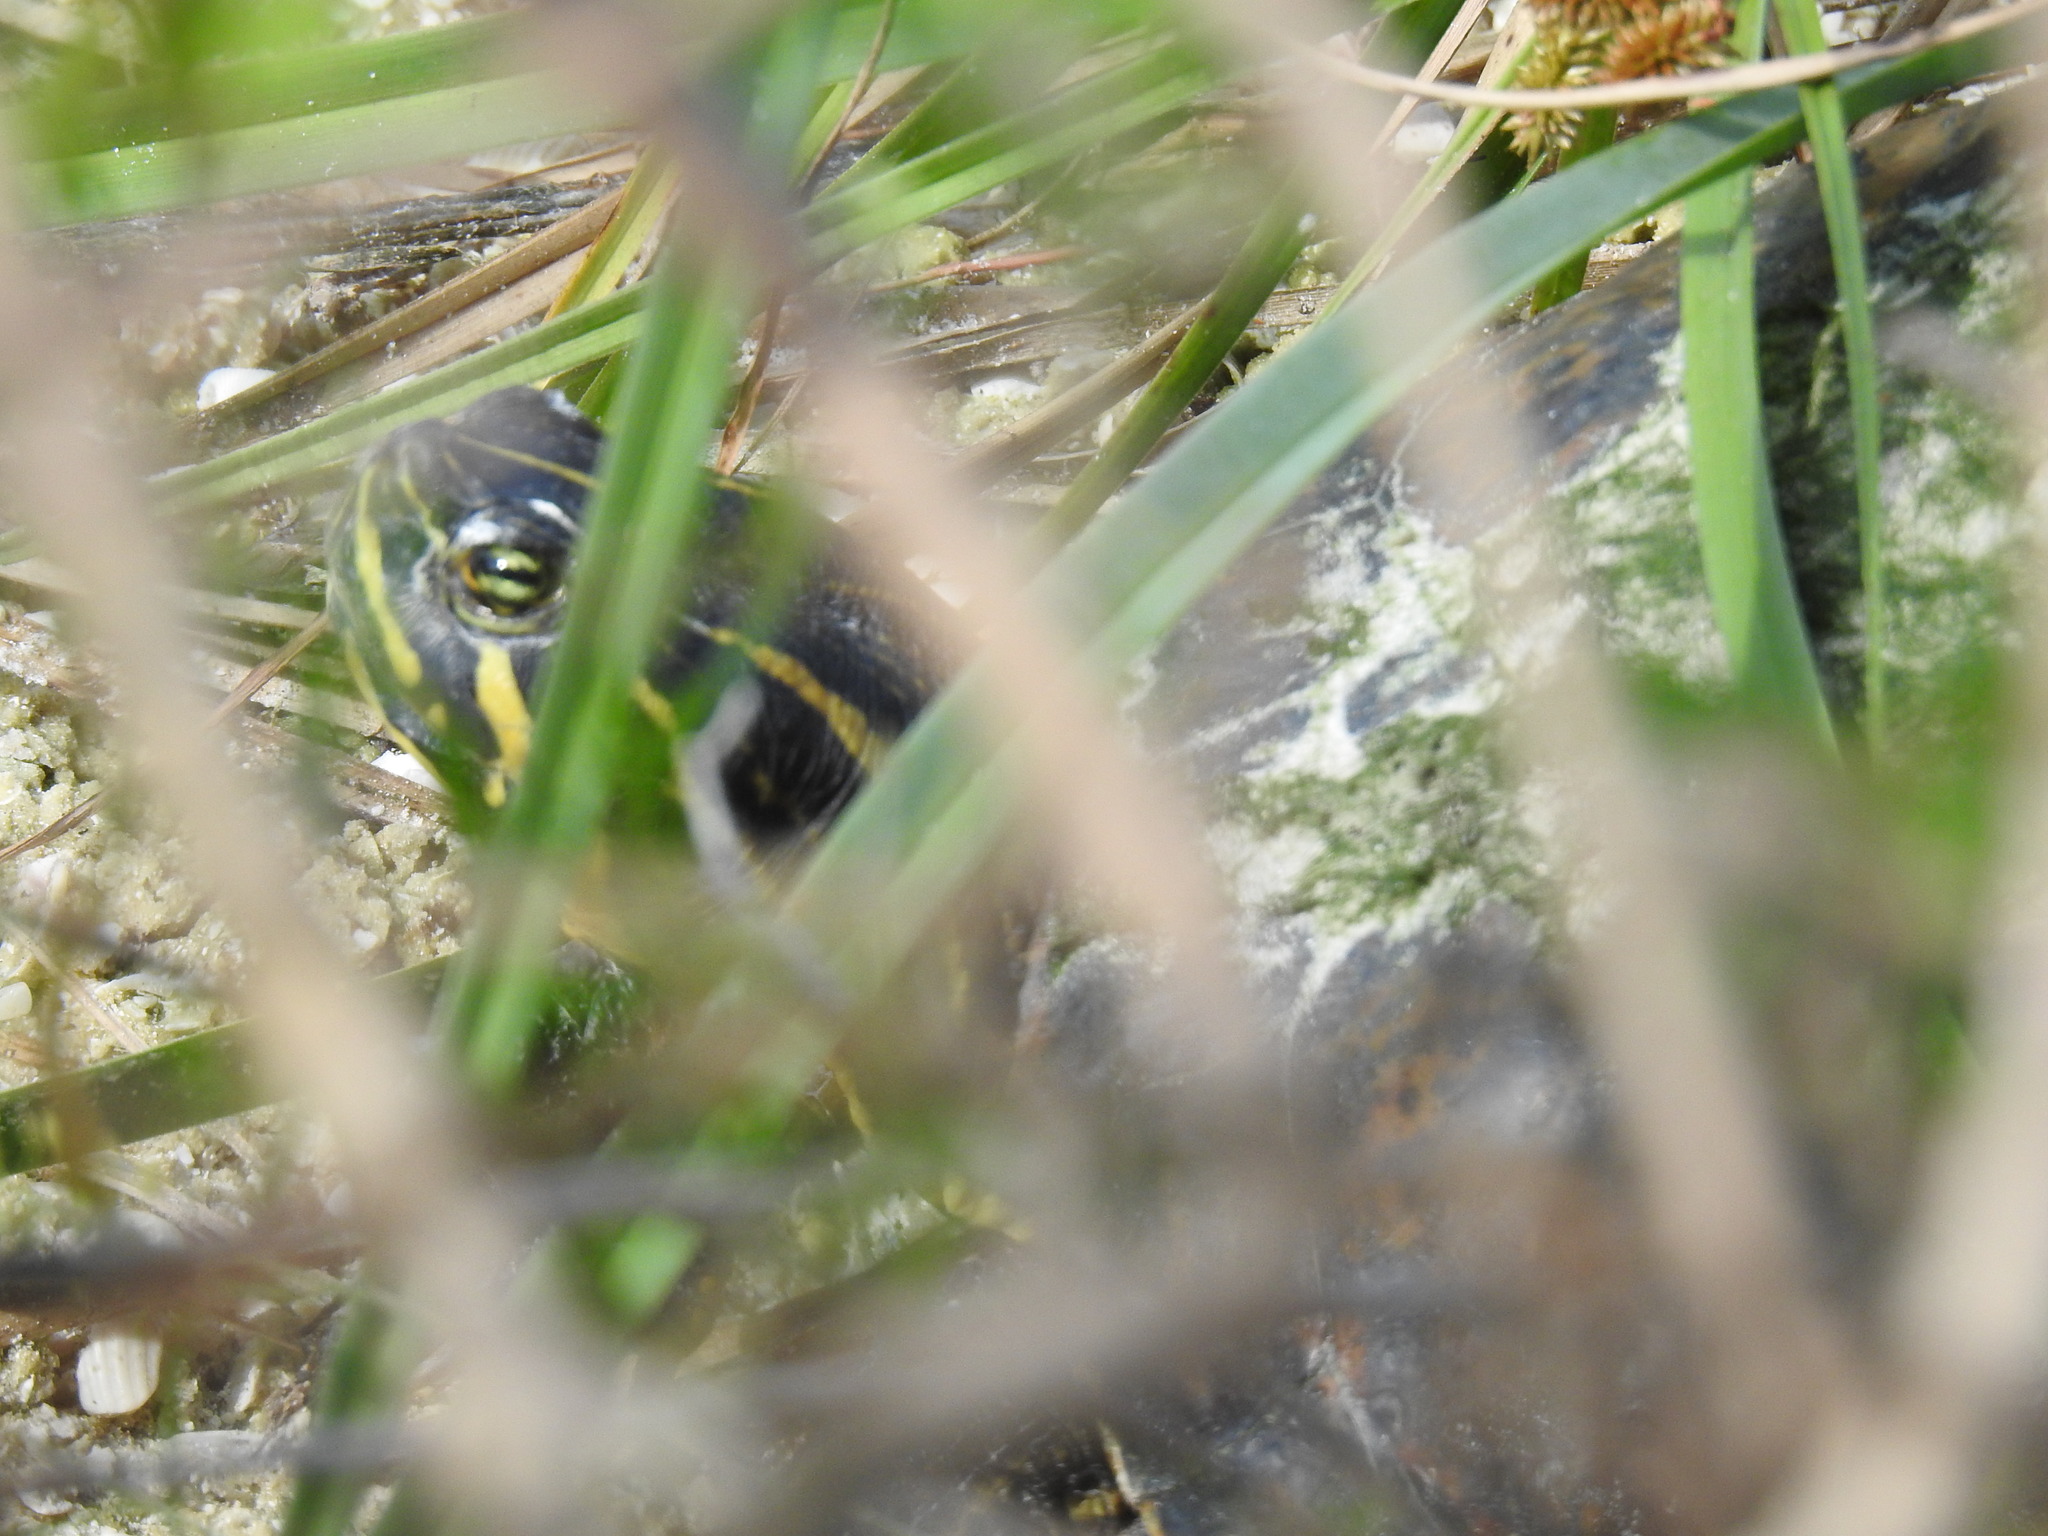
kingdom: Animalia
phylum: Chordata
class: Testudines
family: Emydidae
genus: Pseudemys
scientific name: Pseudemys nelsoni
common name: Florida red-bellied turtle
